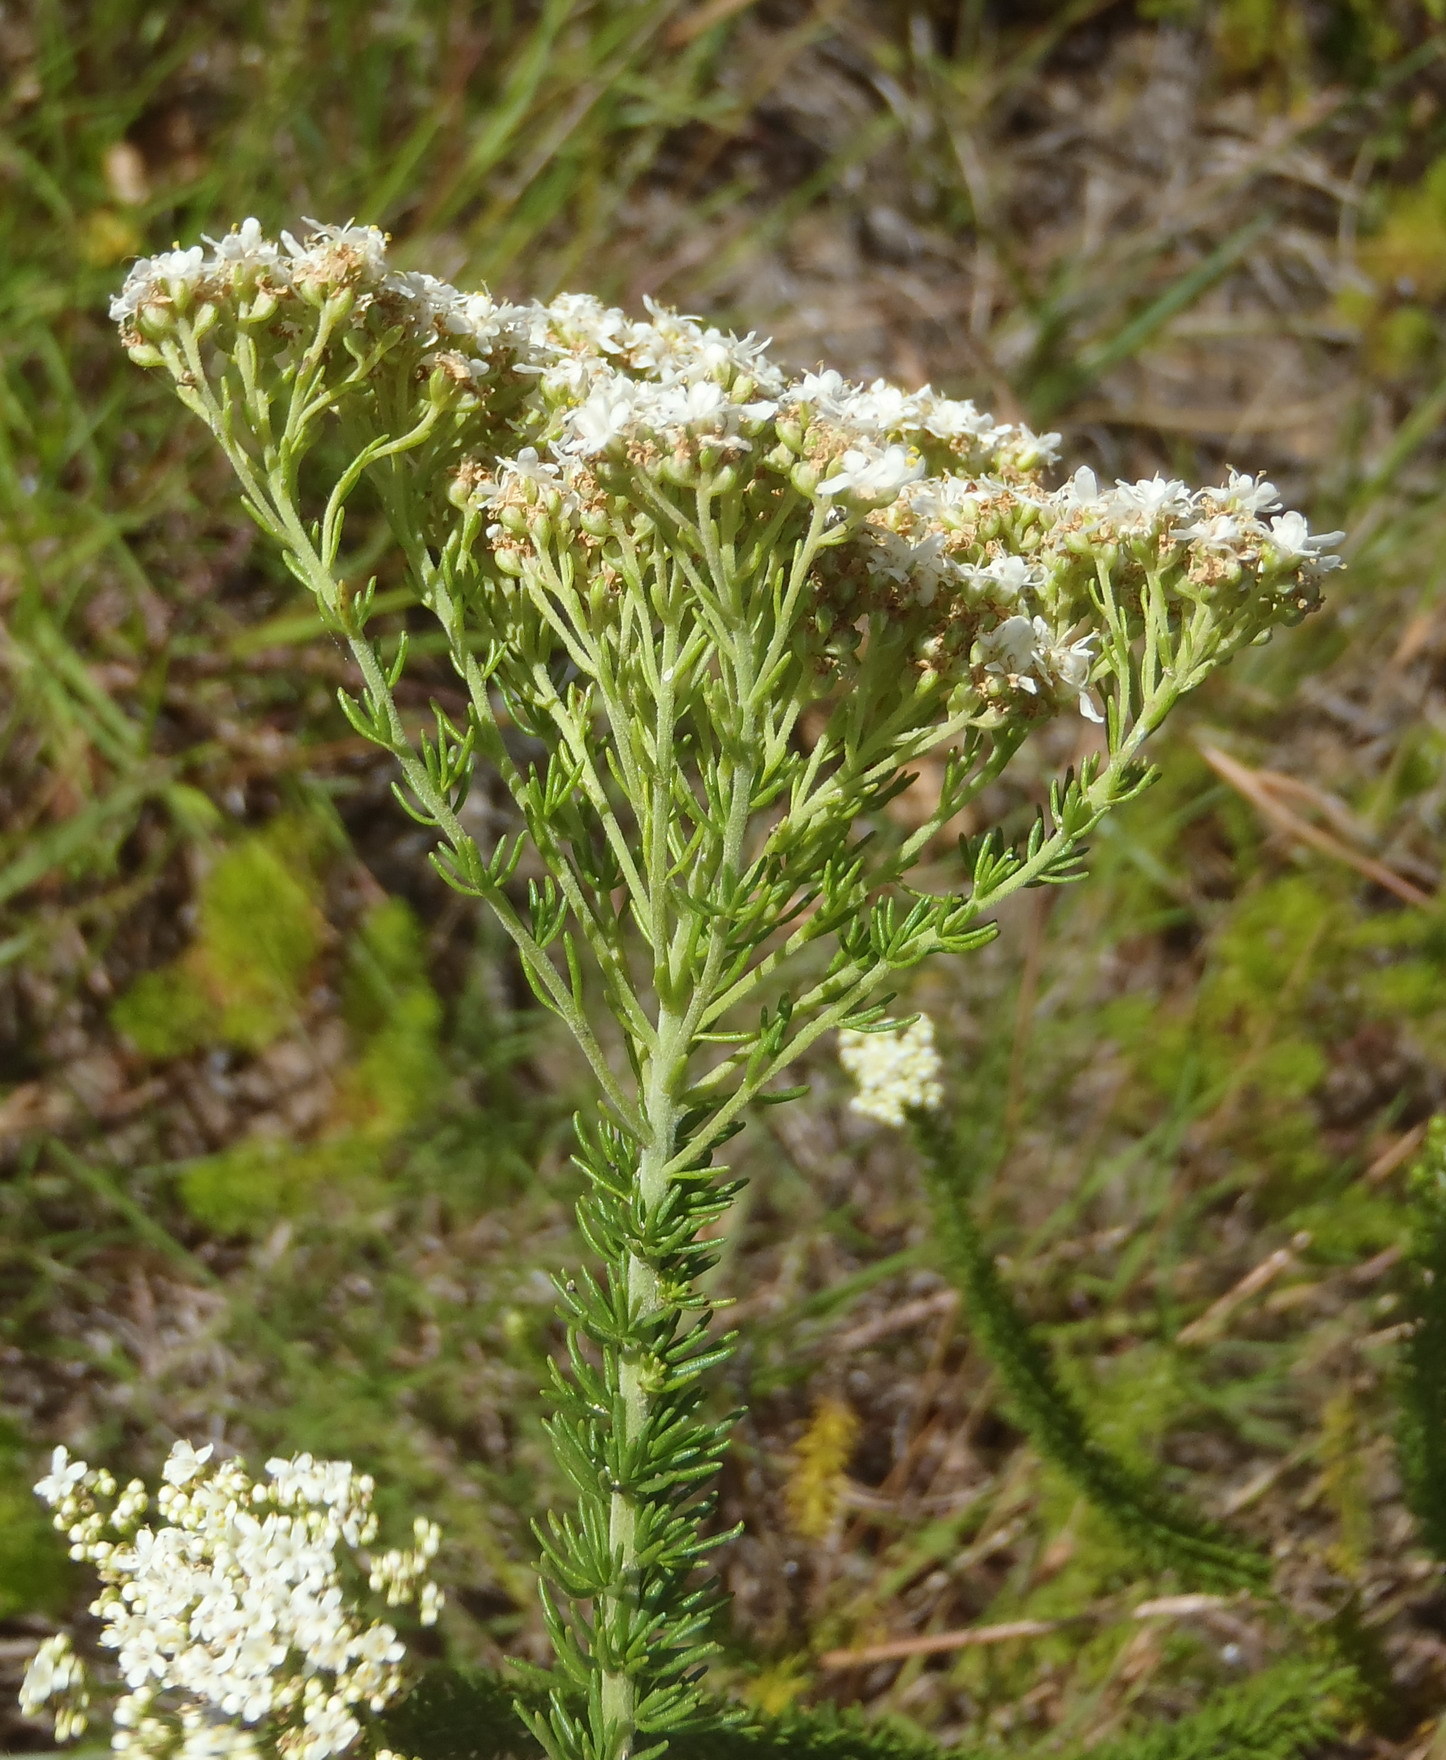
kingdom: Plantae
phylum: Tracheophyta
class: Magnoliopsida
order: Lamiales
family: Scrophulariaceae
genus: Selago
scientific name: Selago corymbosa
